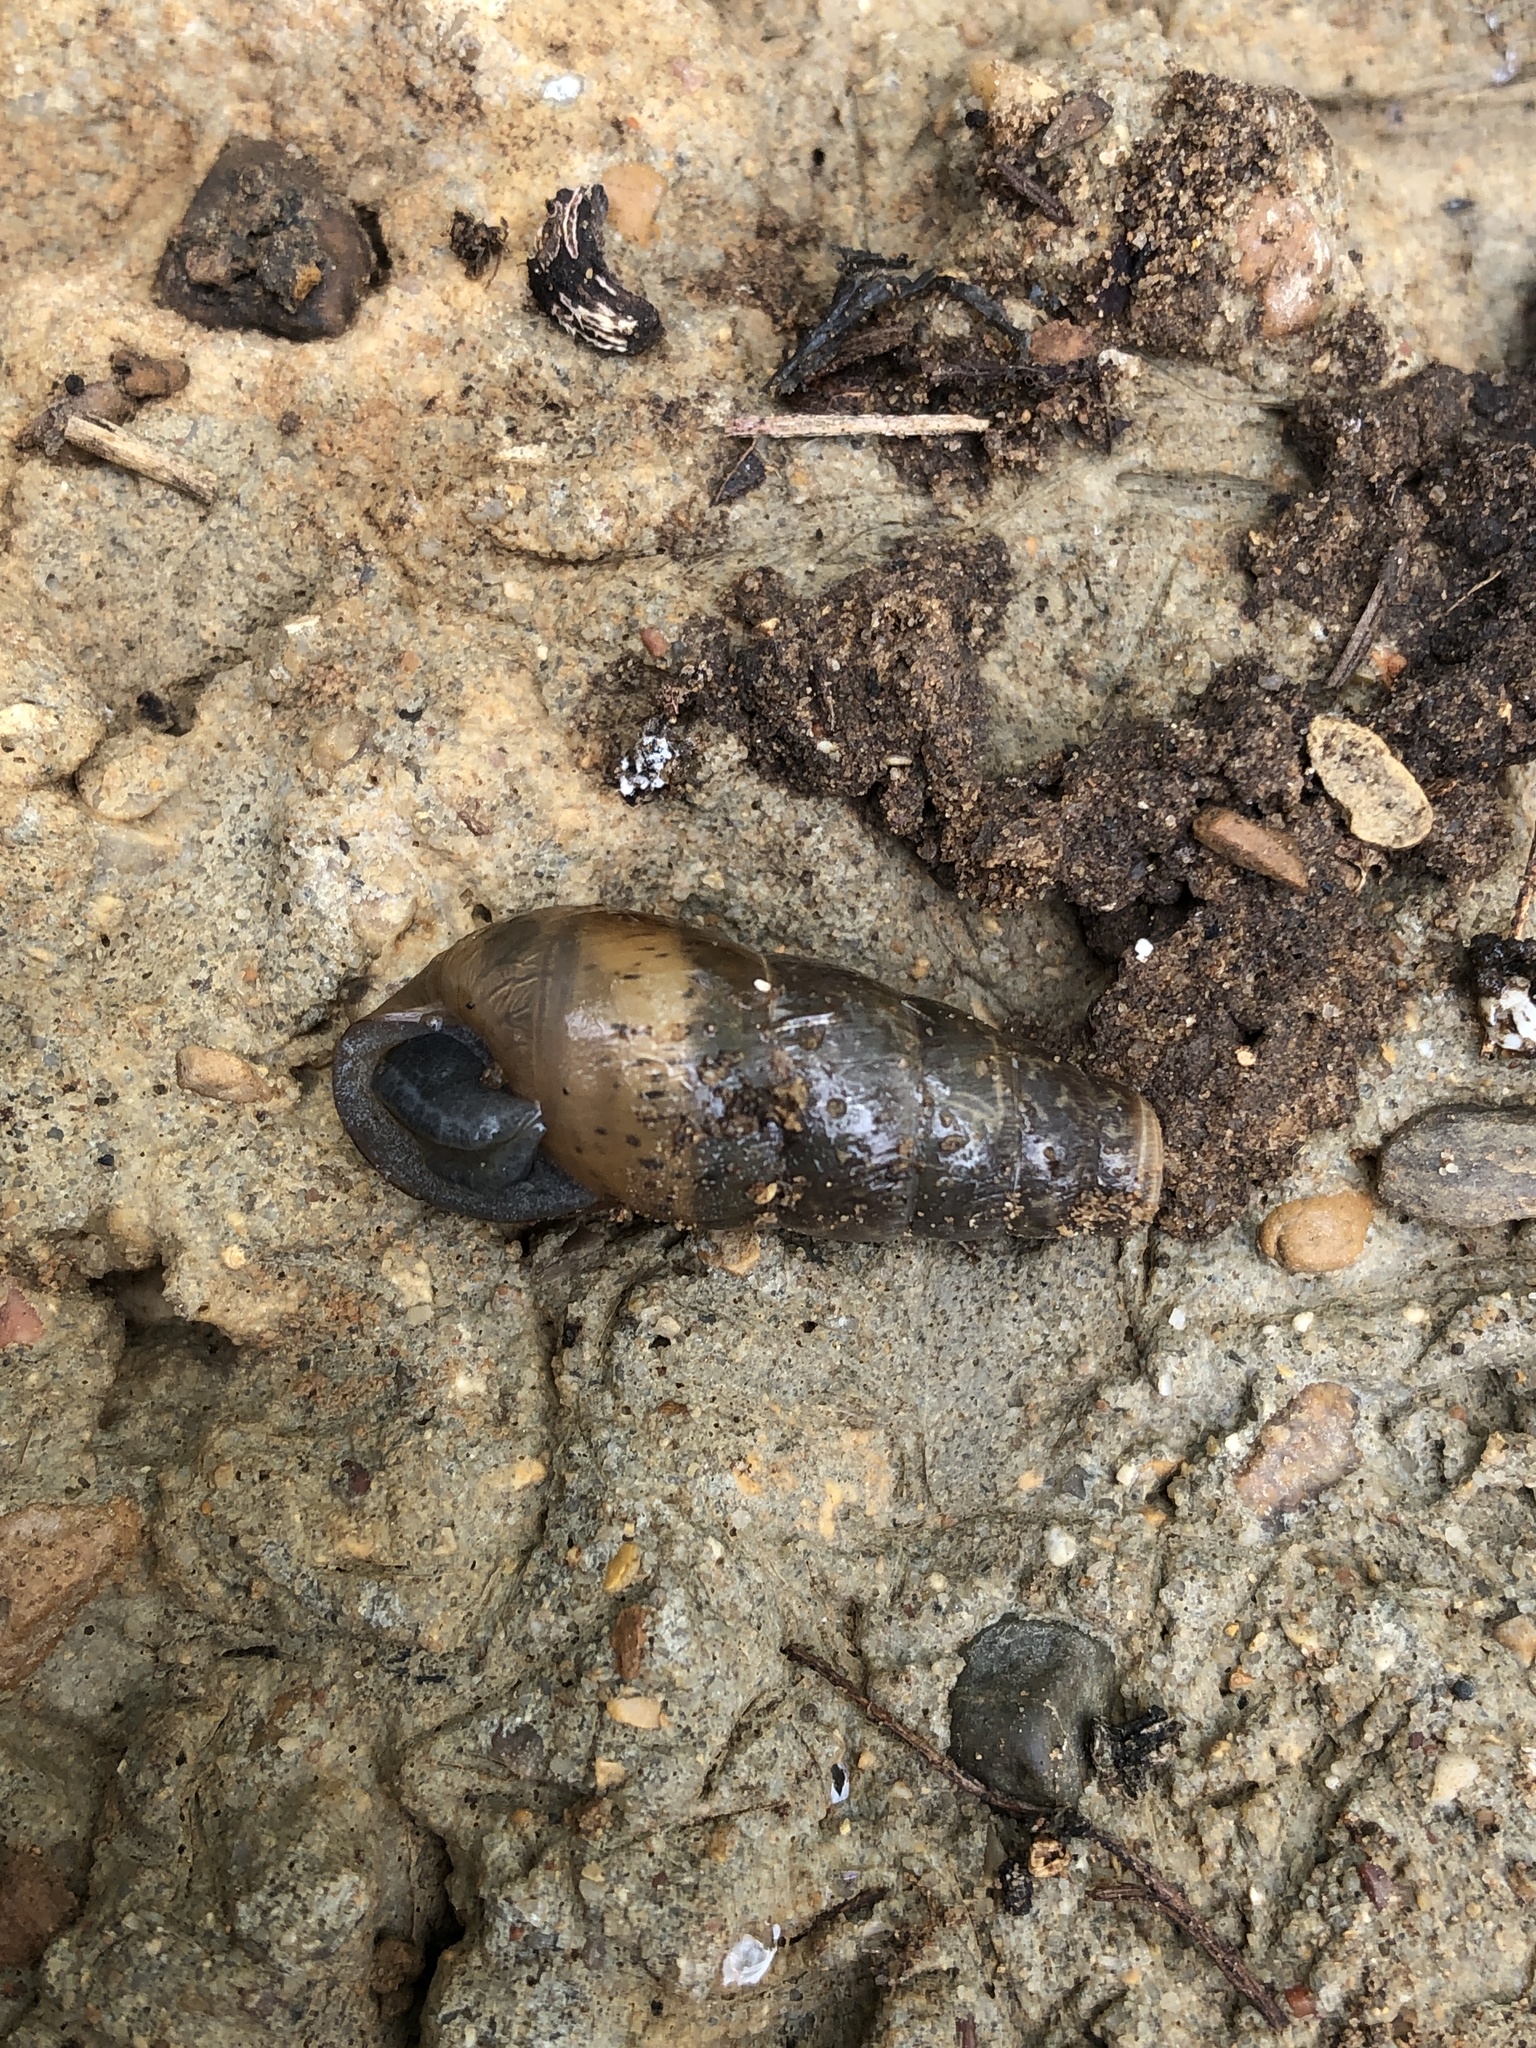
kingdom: Animalia
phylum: Mollusca
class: Gastropoda
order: Stylommatophora
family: Achatinidae
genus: Rumina
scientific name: Rumina decollata
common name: Decollate snail
